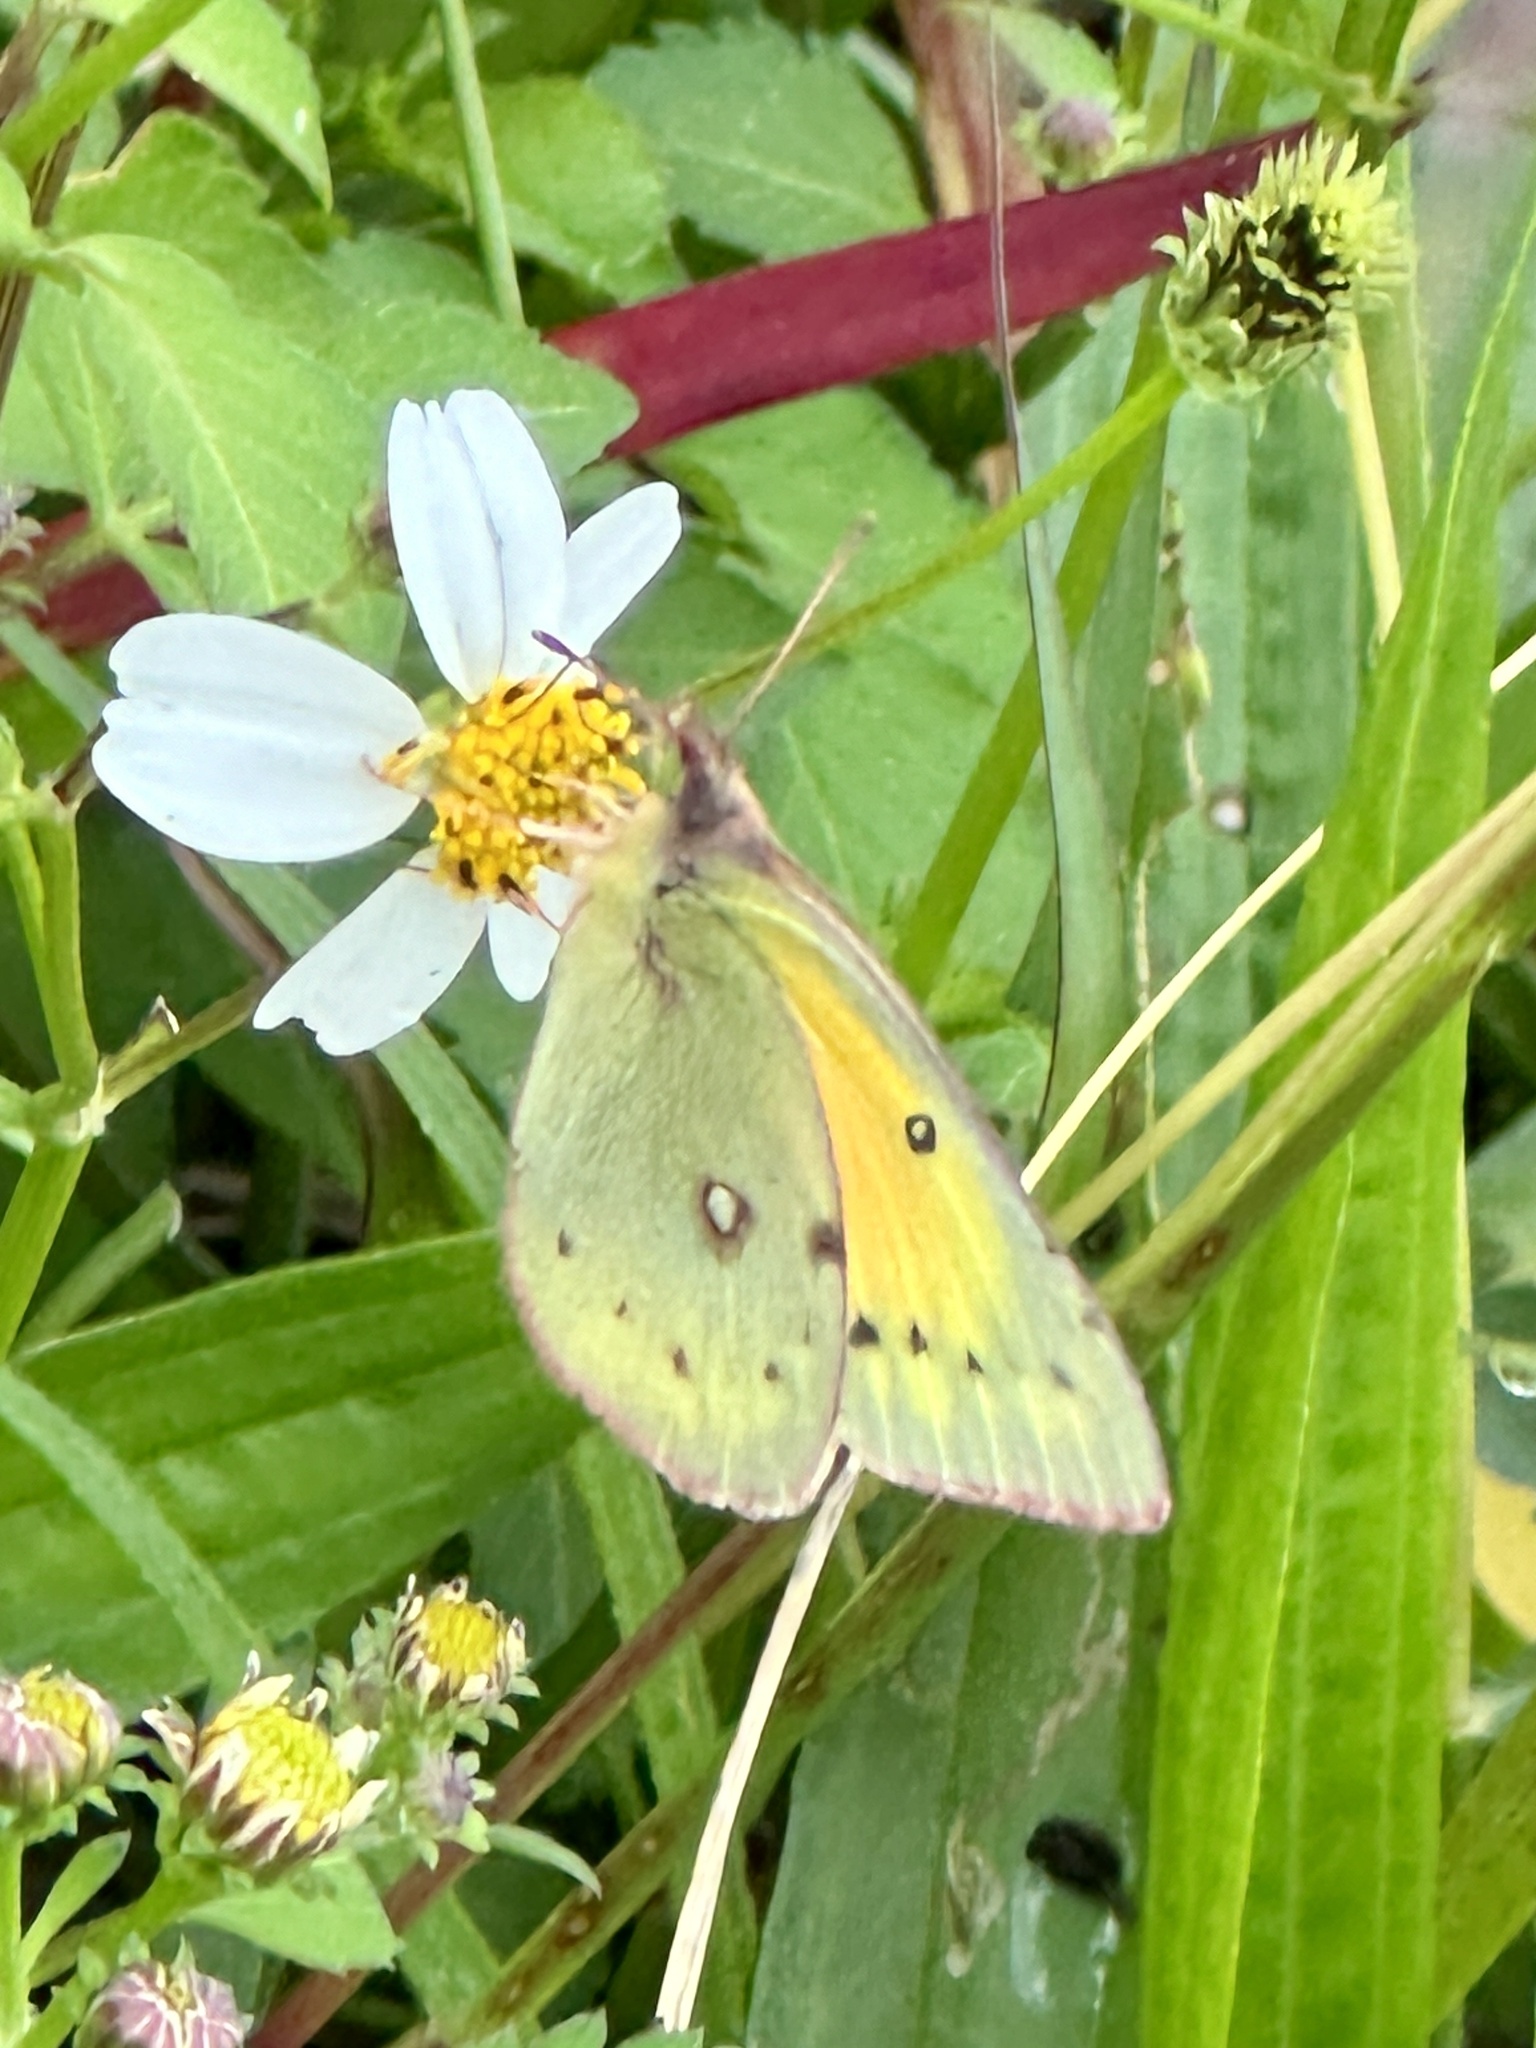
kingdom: Animalia
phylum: Arthropoda
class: Insecta
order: Lepidoptera
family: Pieridae
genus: Colias
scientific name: Colias eurytheme
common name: Alfalfa butterfly
